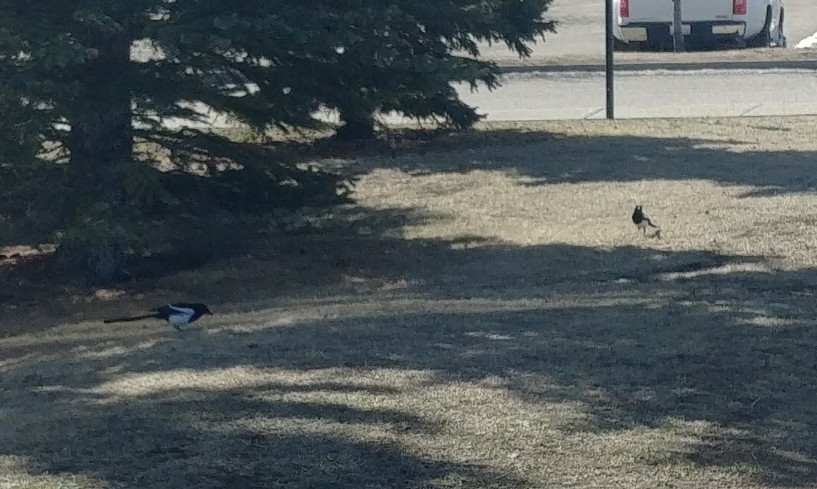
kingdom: Animalia
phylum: Chordata
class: Aves
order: Passeriformes
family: Corvidae
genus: Pica
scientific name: Pica hudsonia
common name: Black-billed magpie
